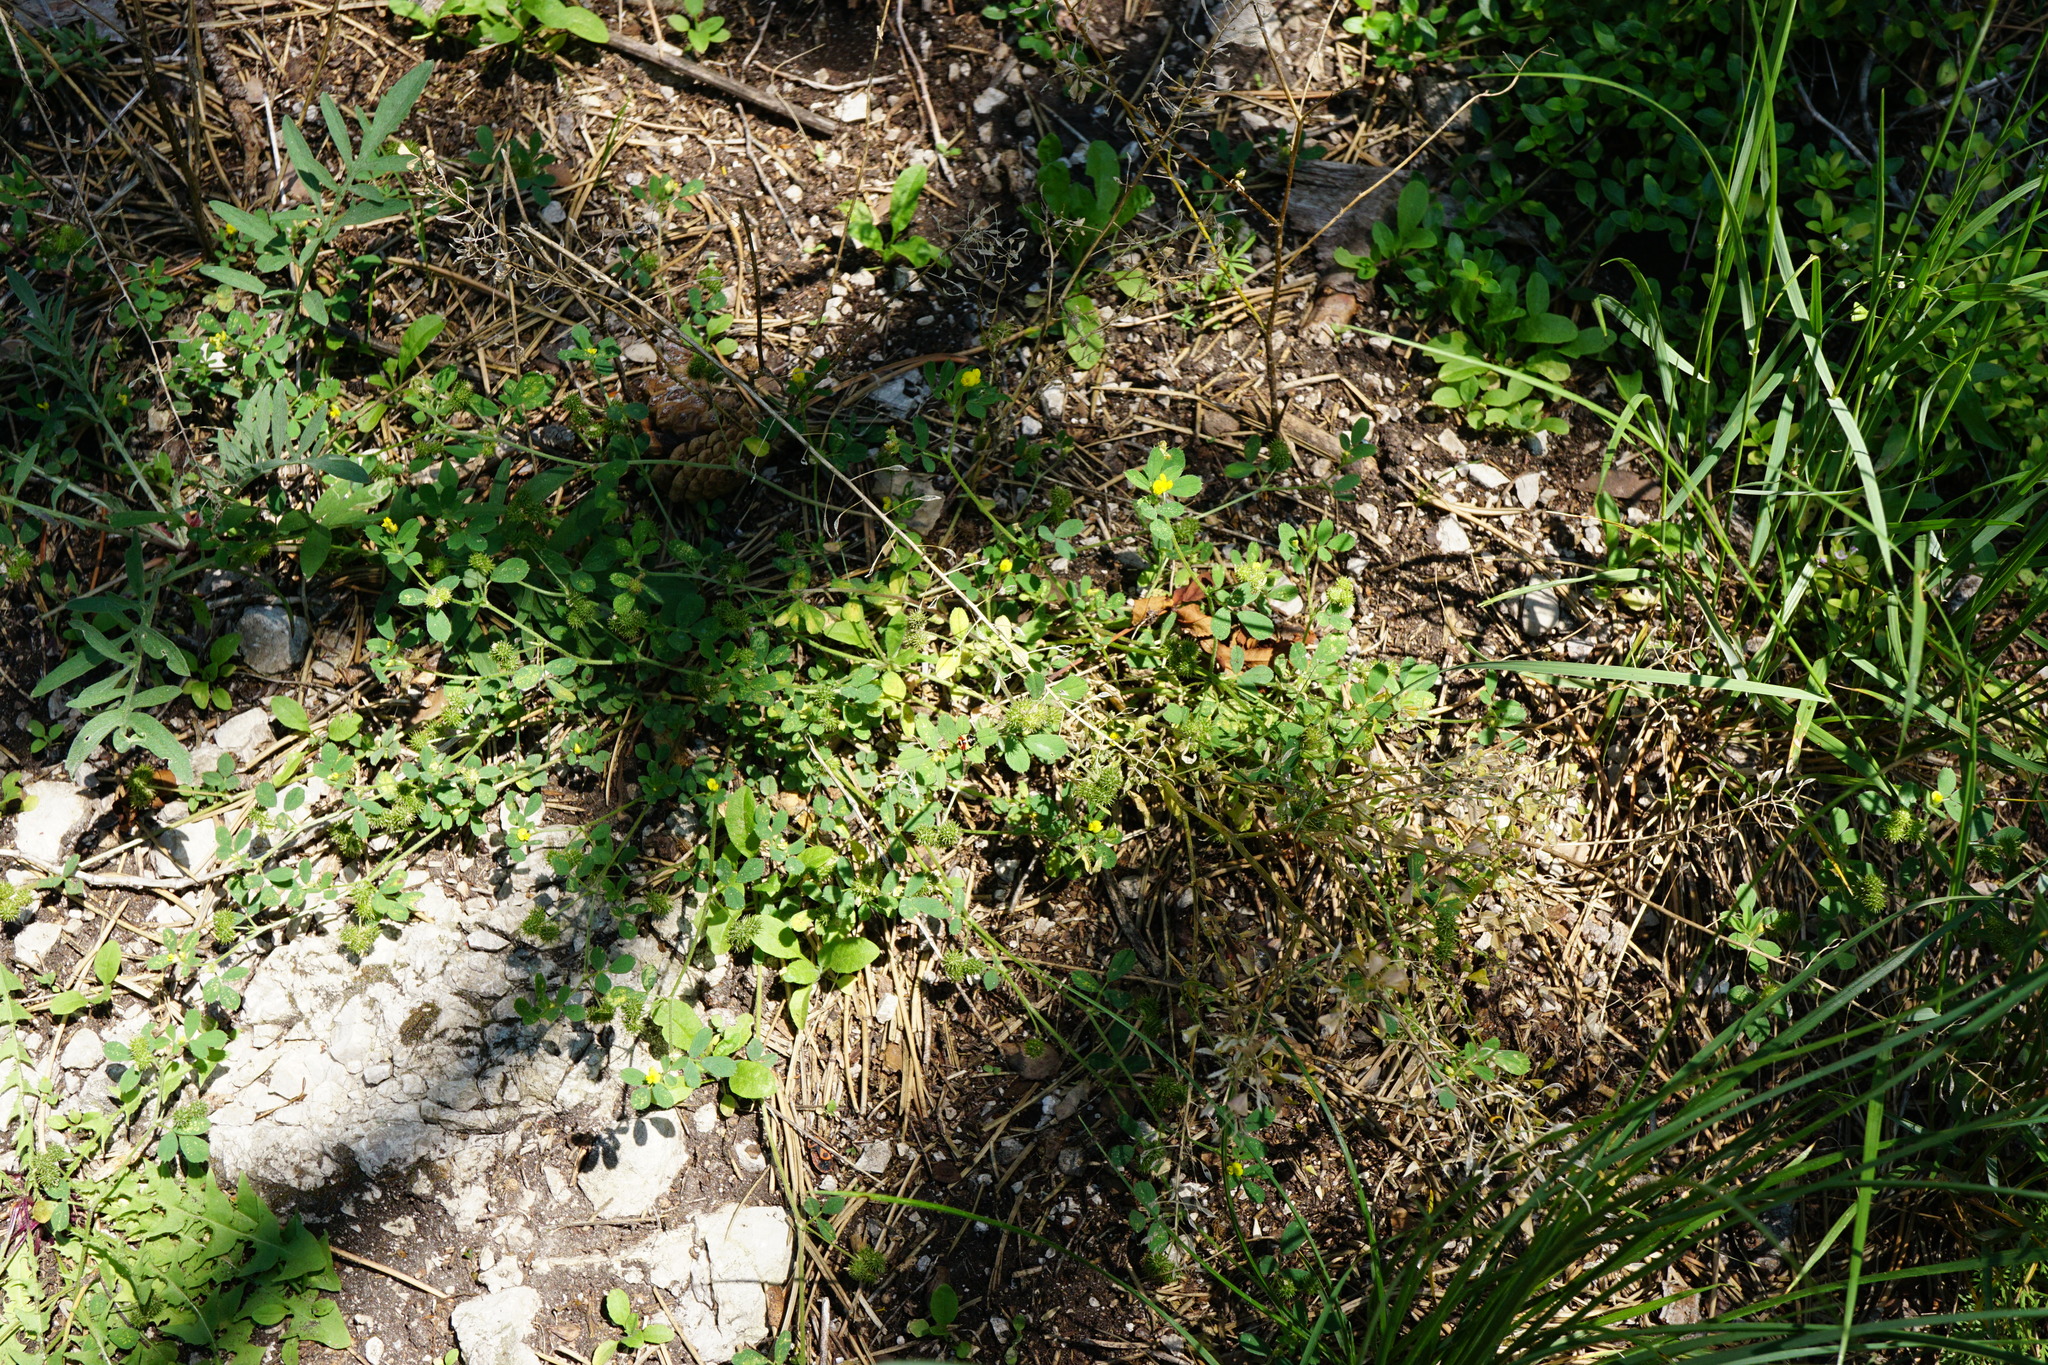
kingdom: Plantae
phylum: Tracheophyta
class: Magnoliopsida
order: Fabales
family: Fabaceae
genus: Medicago
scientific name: Medicago minima
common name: Little bur-clover
